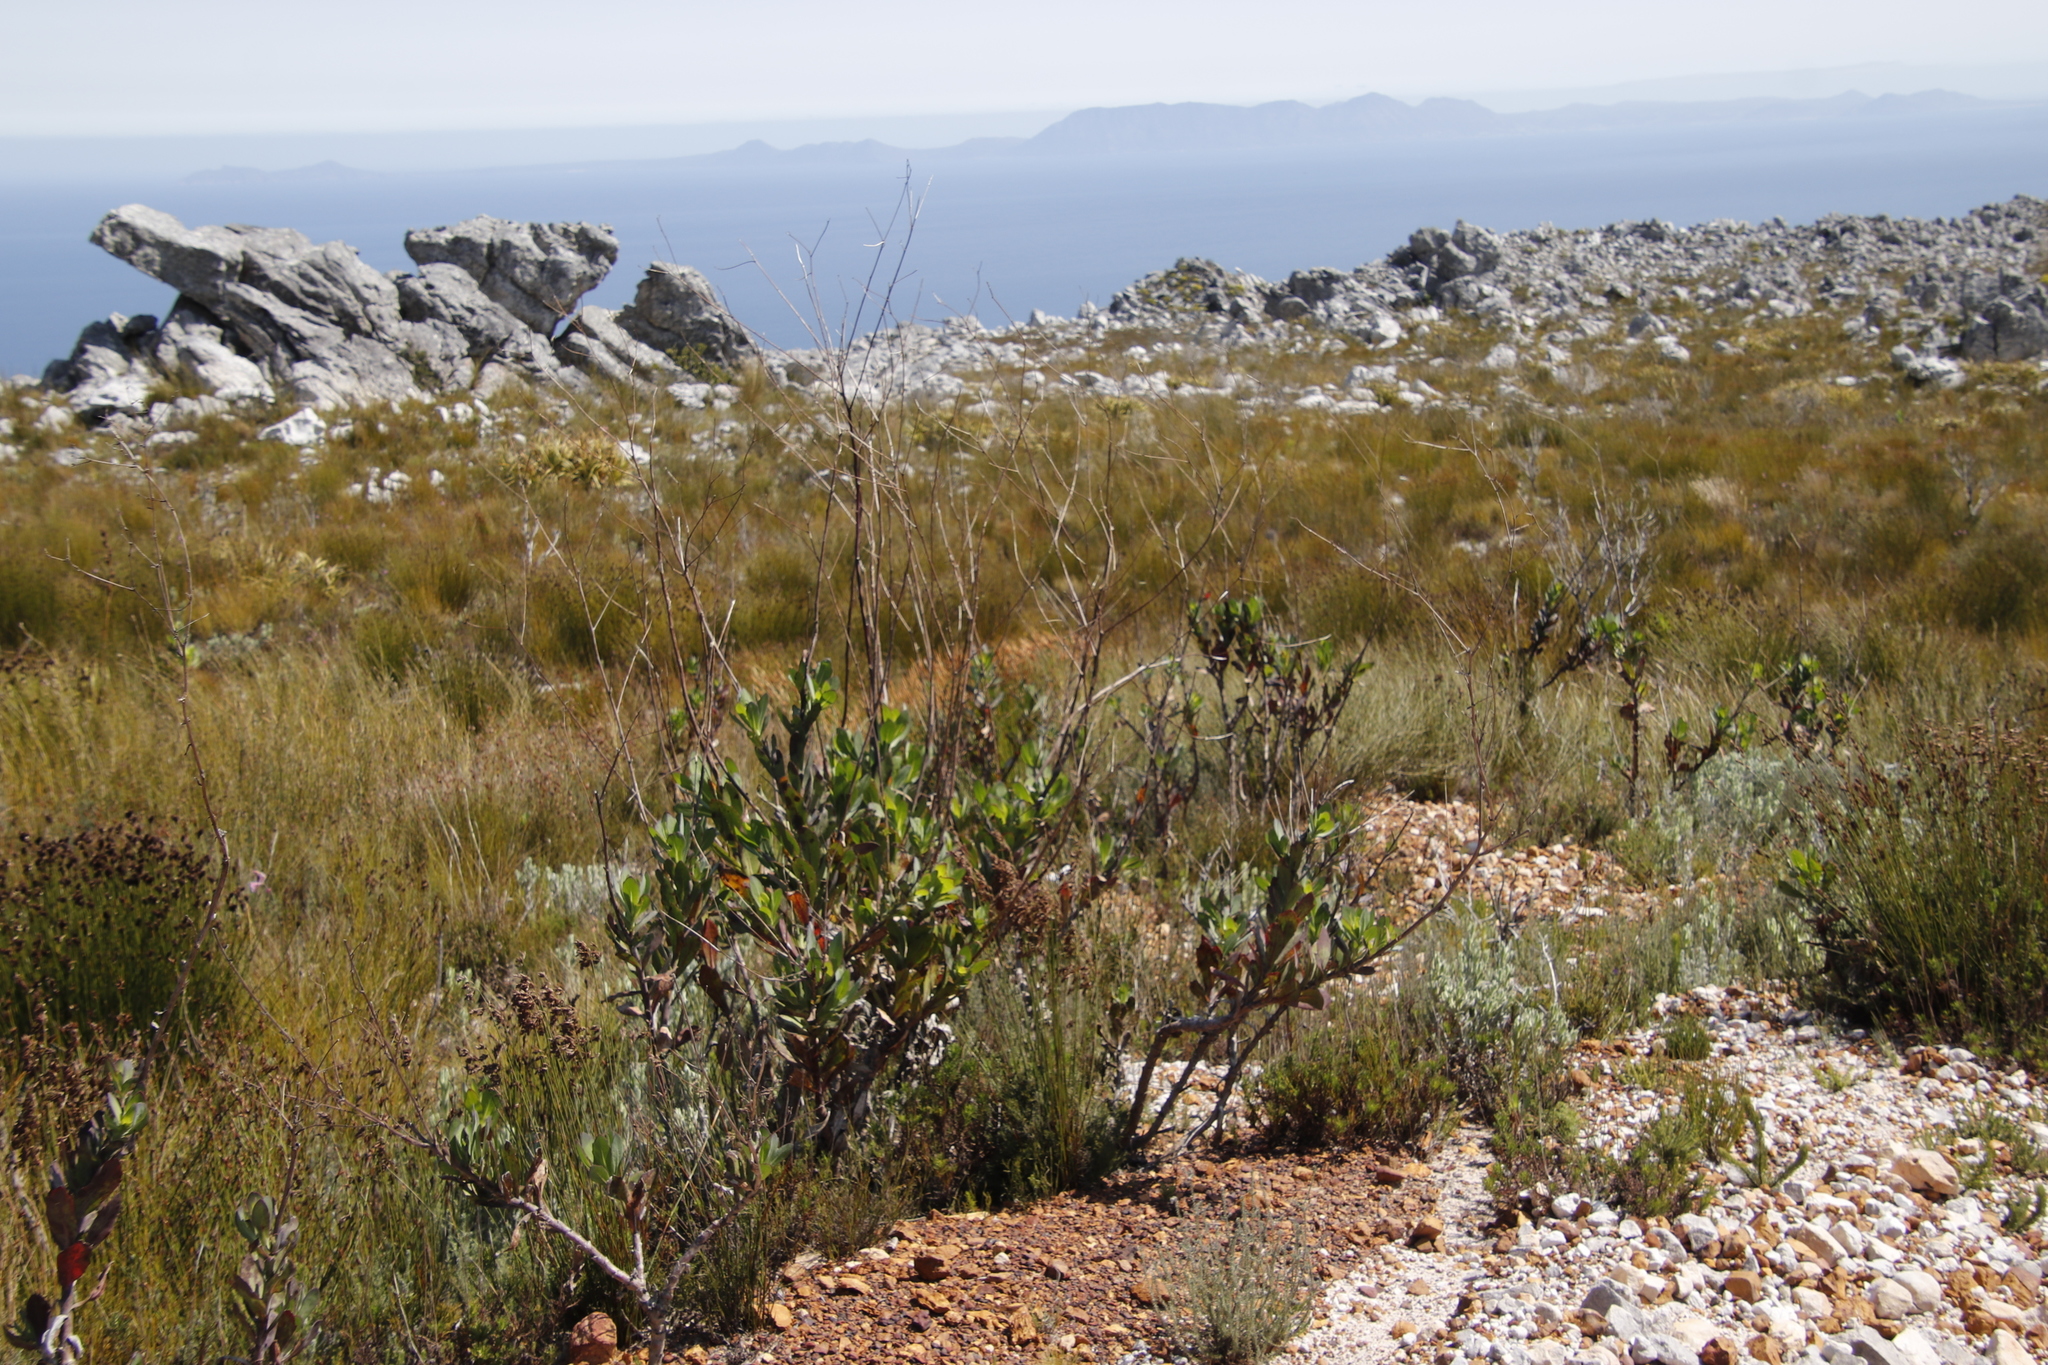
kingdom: Plantae
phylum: Tracheophyta
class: Magnoliopsida
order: Asterales
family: Asteraceae
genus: Othonna
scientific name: Othonna quinquedentata
